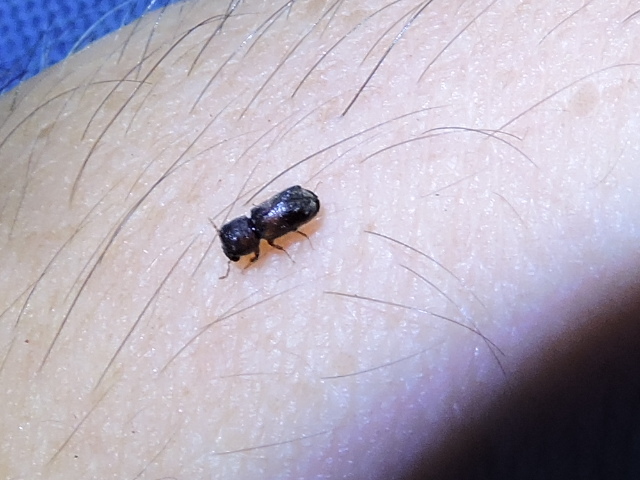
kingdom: Animalia
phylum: Arthropoda
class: Insecta
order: Coleoptera
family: Bostrichidae
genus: Xylobiops
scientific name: Xylobiops basilaris
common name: Red-shouldered bostrichid
